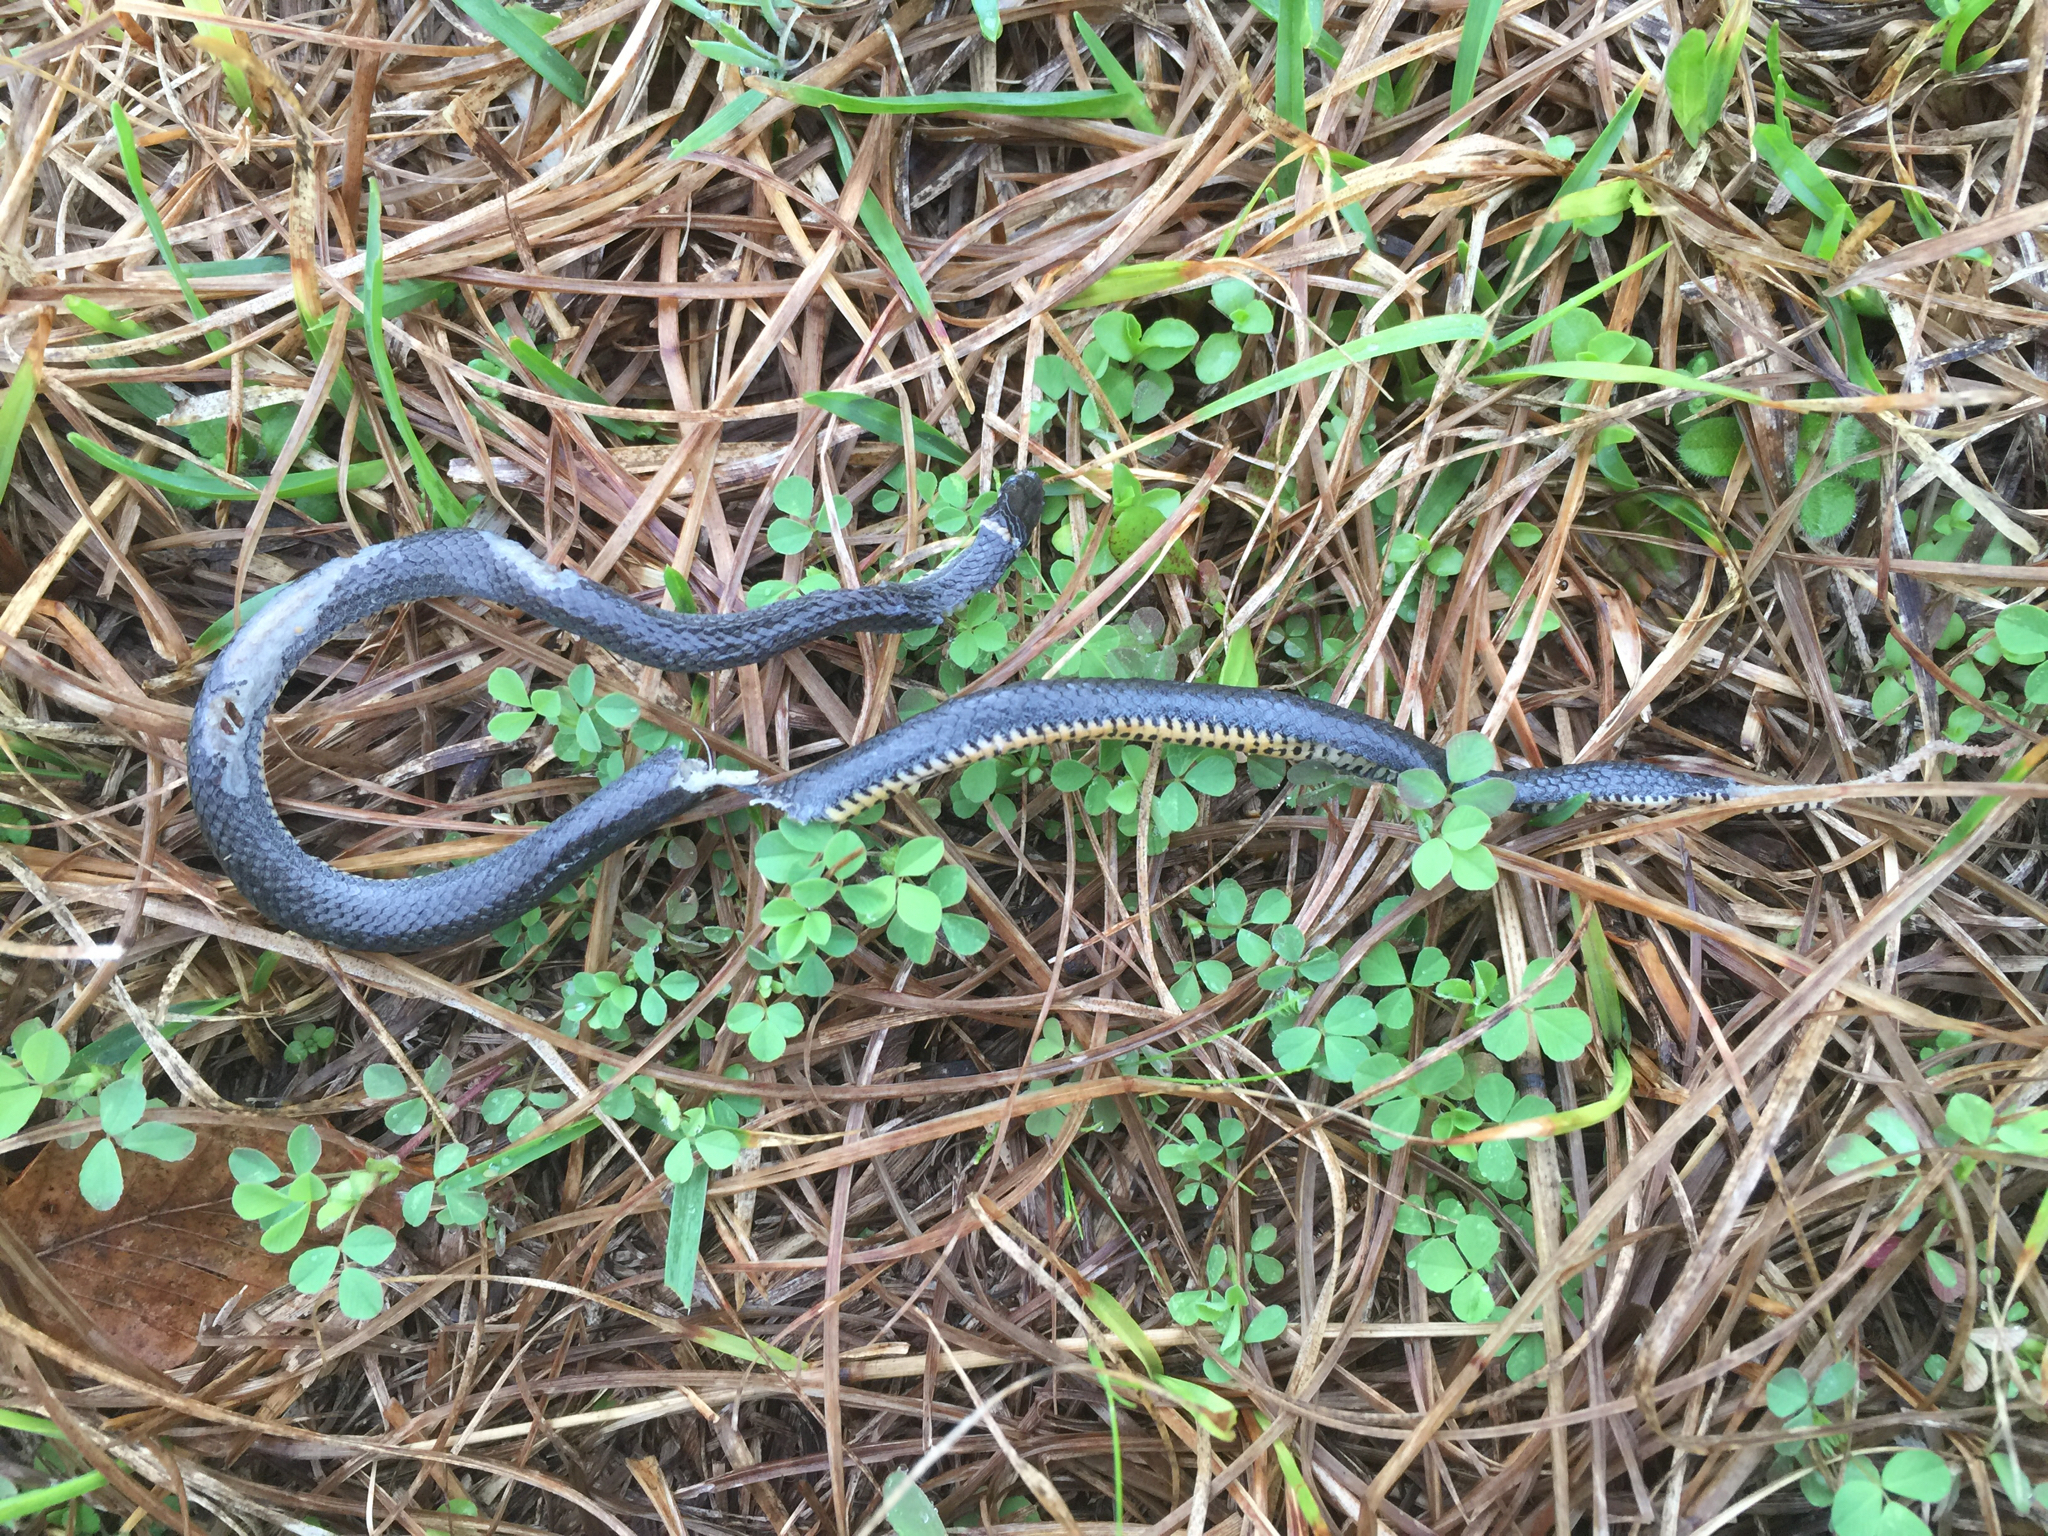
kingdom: Animalia
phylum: Chordata
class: Squamata
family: Colubridae
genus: Diadophis
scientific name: Diadophis punctatus
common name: Ringneck snake
